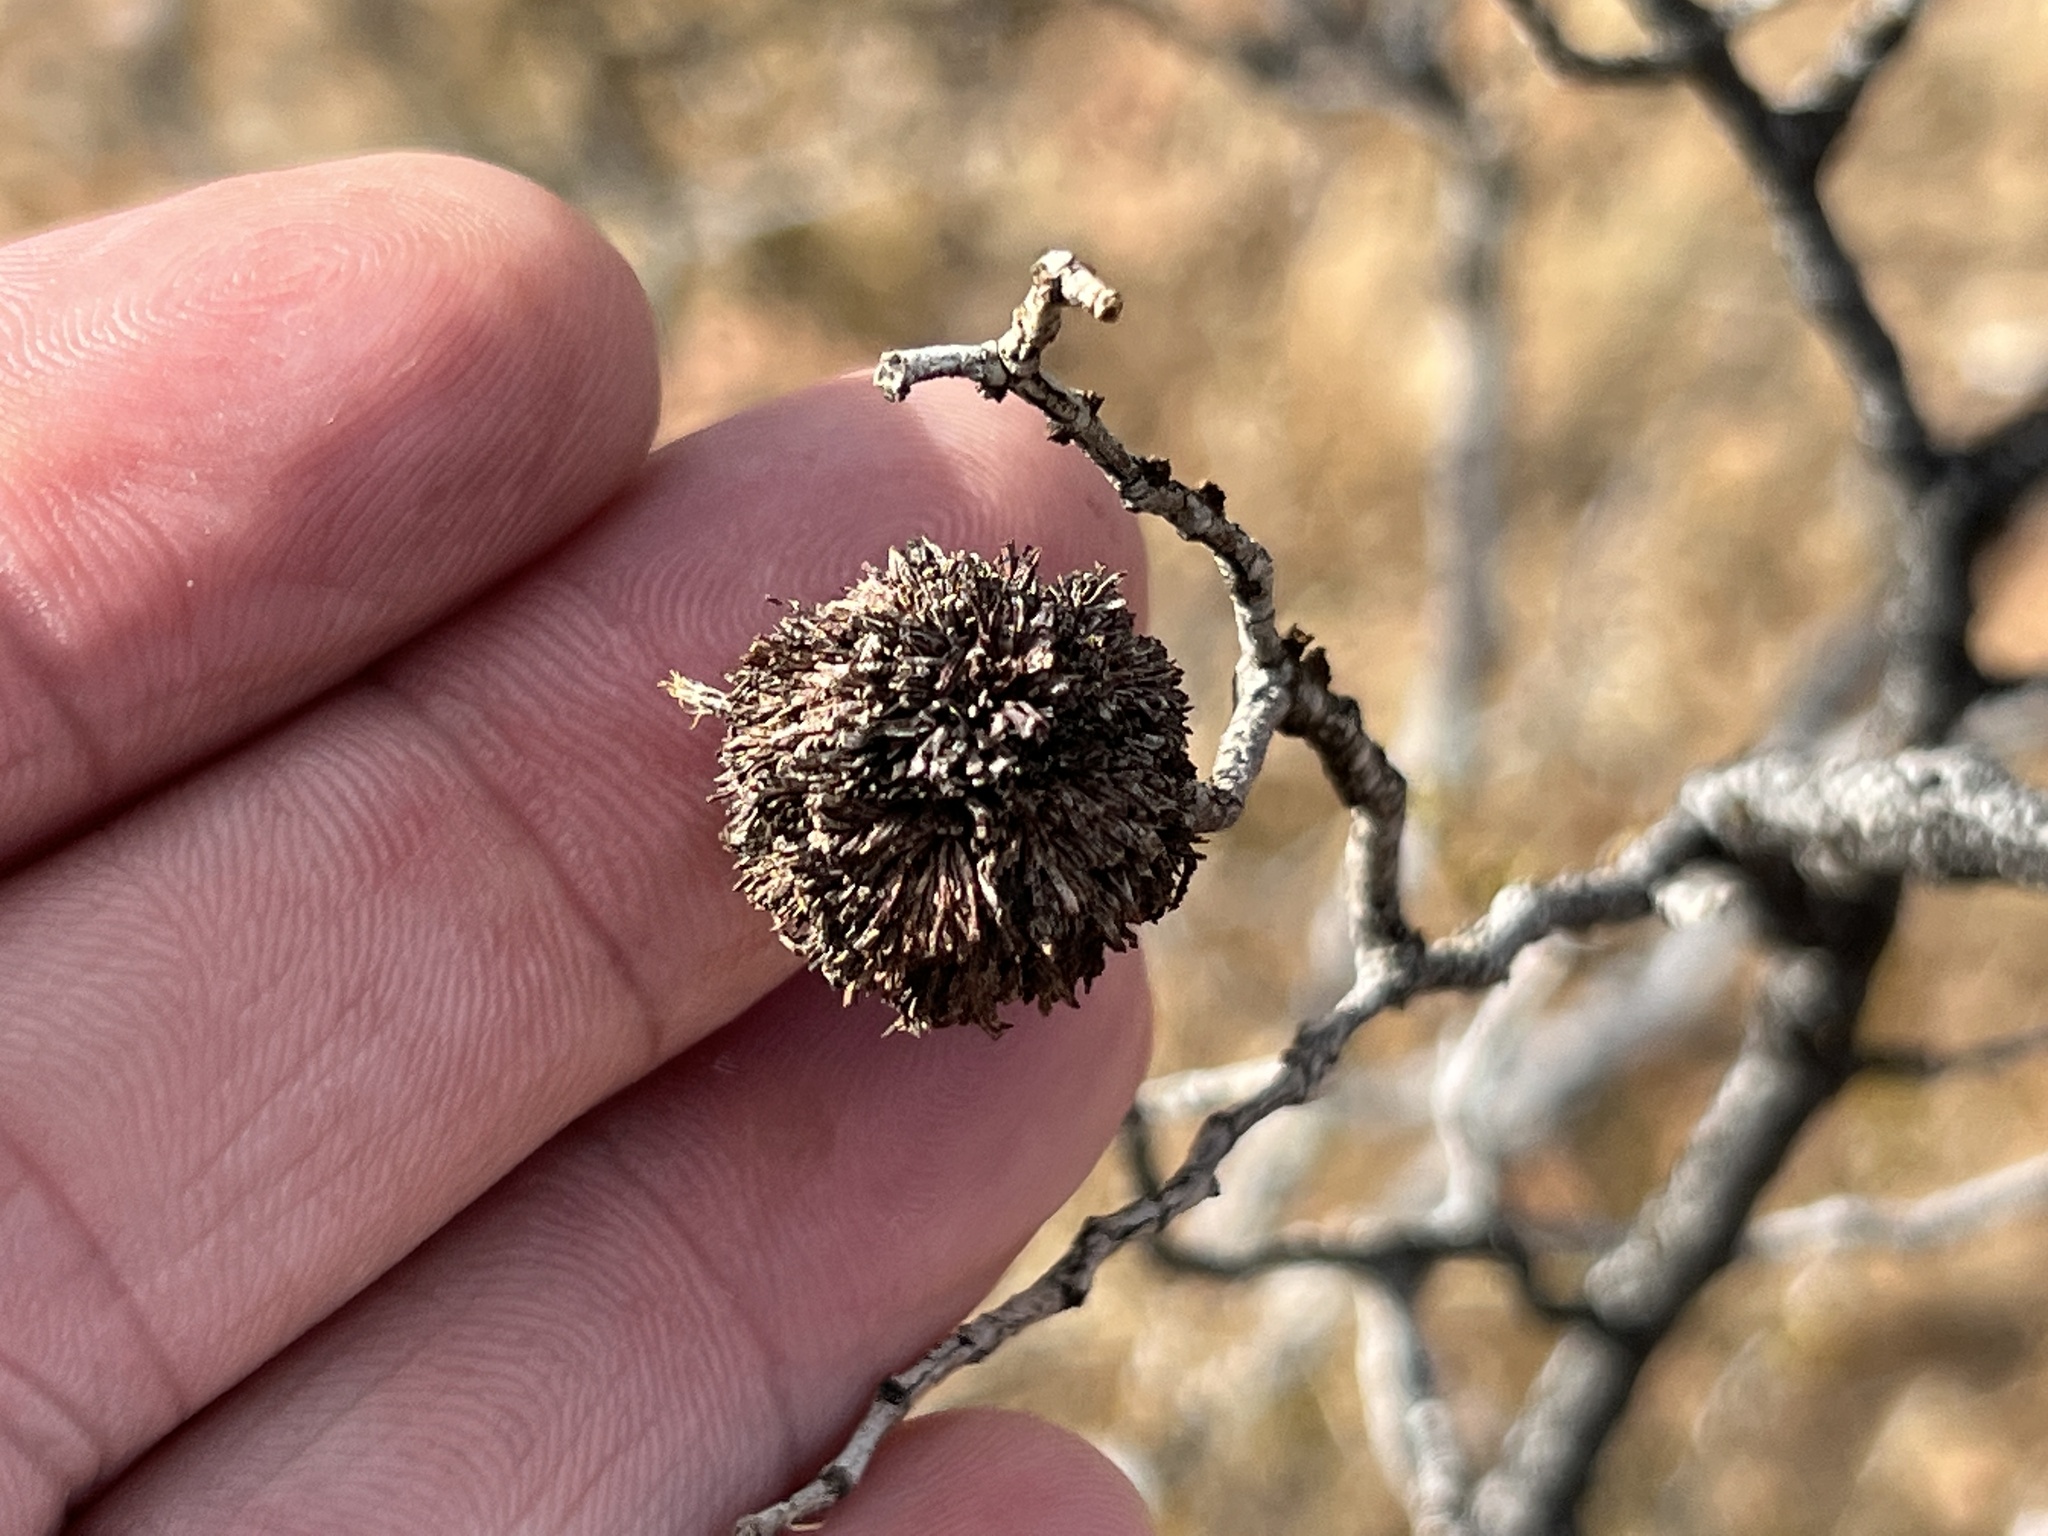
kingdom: Animalia
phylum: Arthropoda
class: Insecta
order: Diptera
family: Cecidomyiidae
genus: Asphondylia
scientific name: Asphondylia auripila
